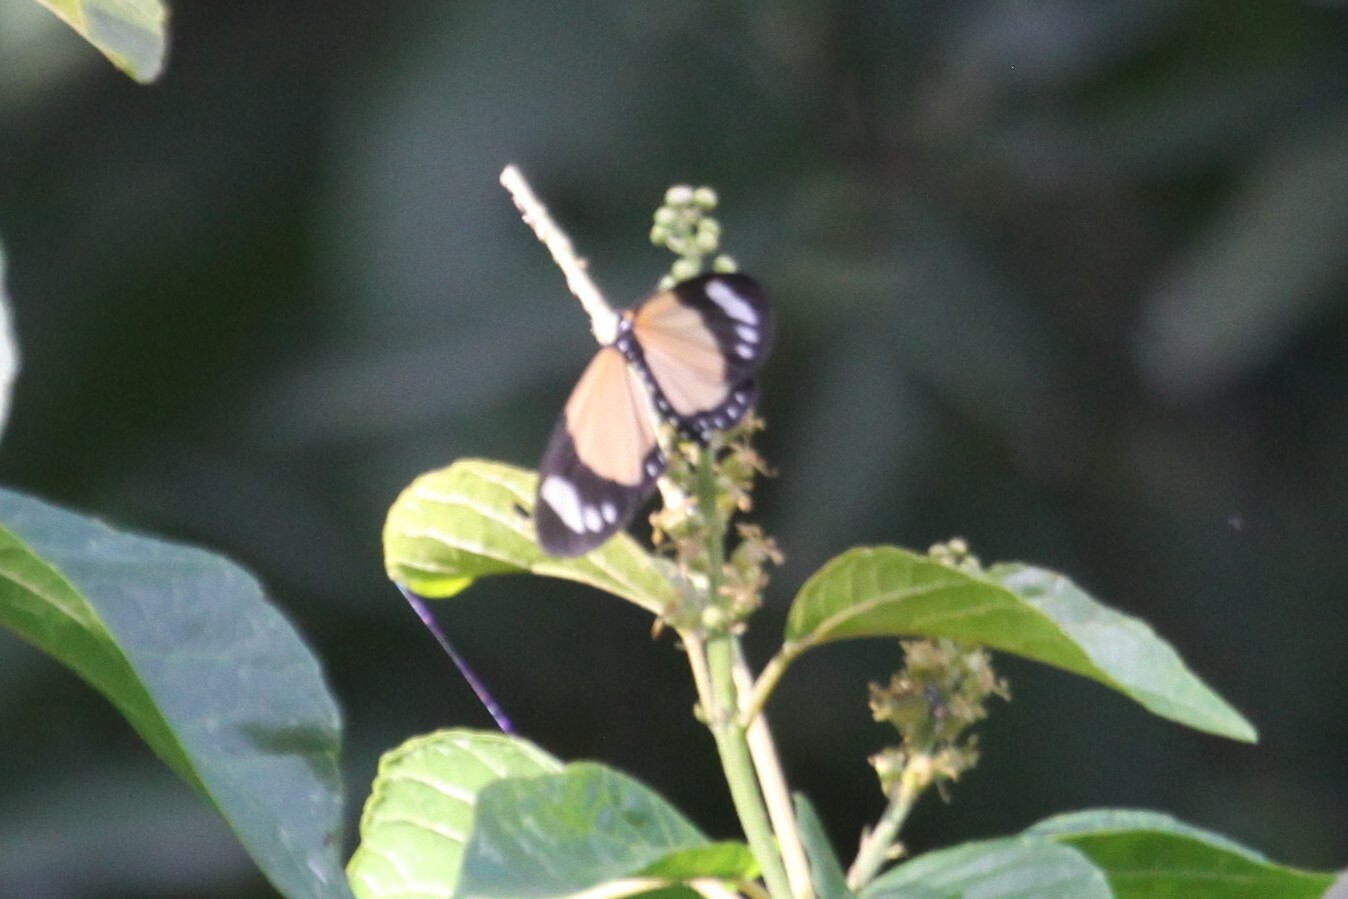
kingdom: Animalia
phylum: Arthropoda
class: Insecta
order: Lepidoptera
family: Geometridae
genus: Cartaletis
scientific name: Cartaletis libyssa
